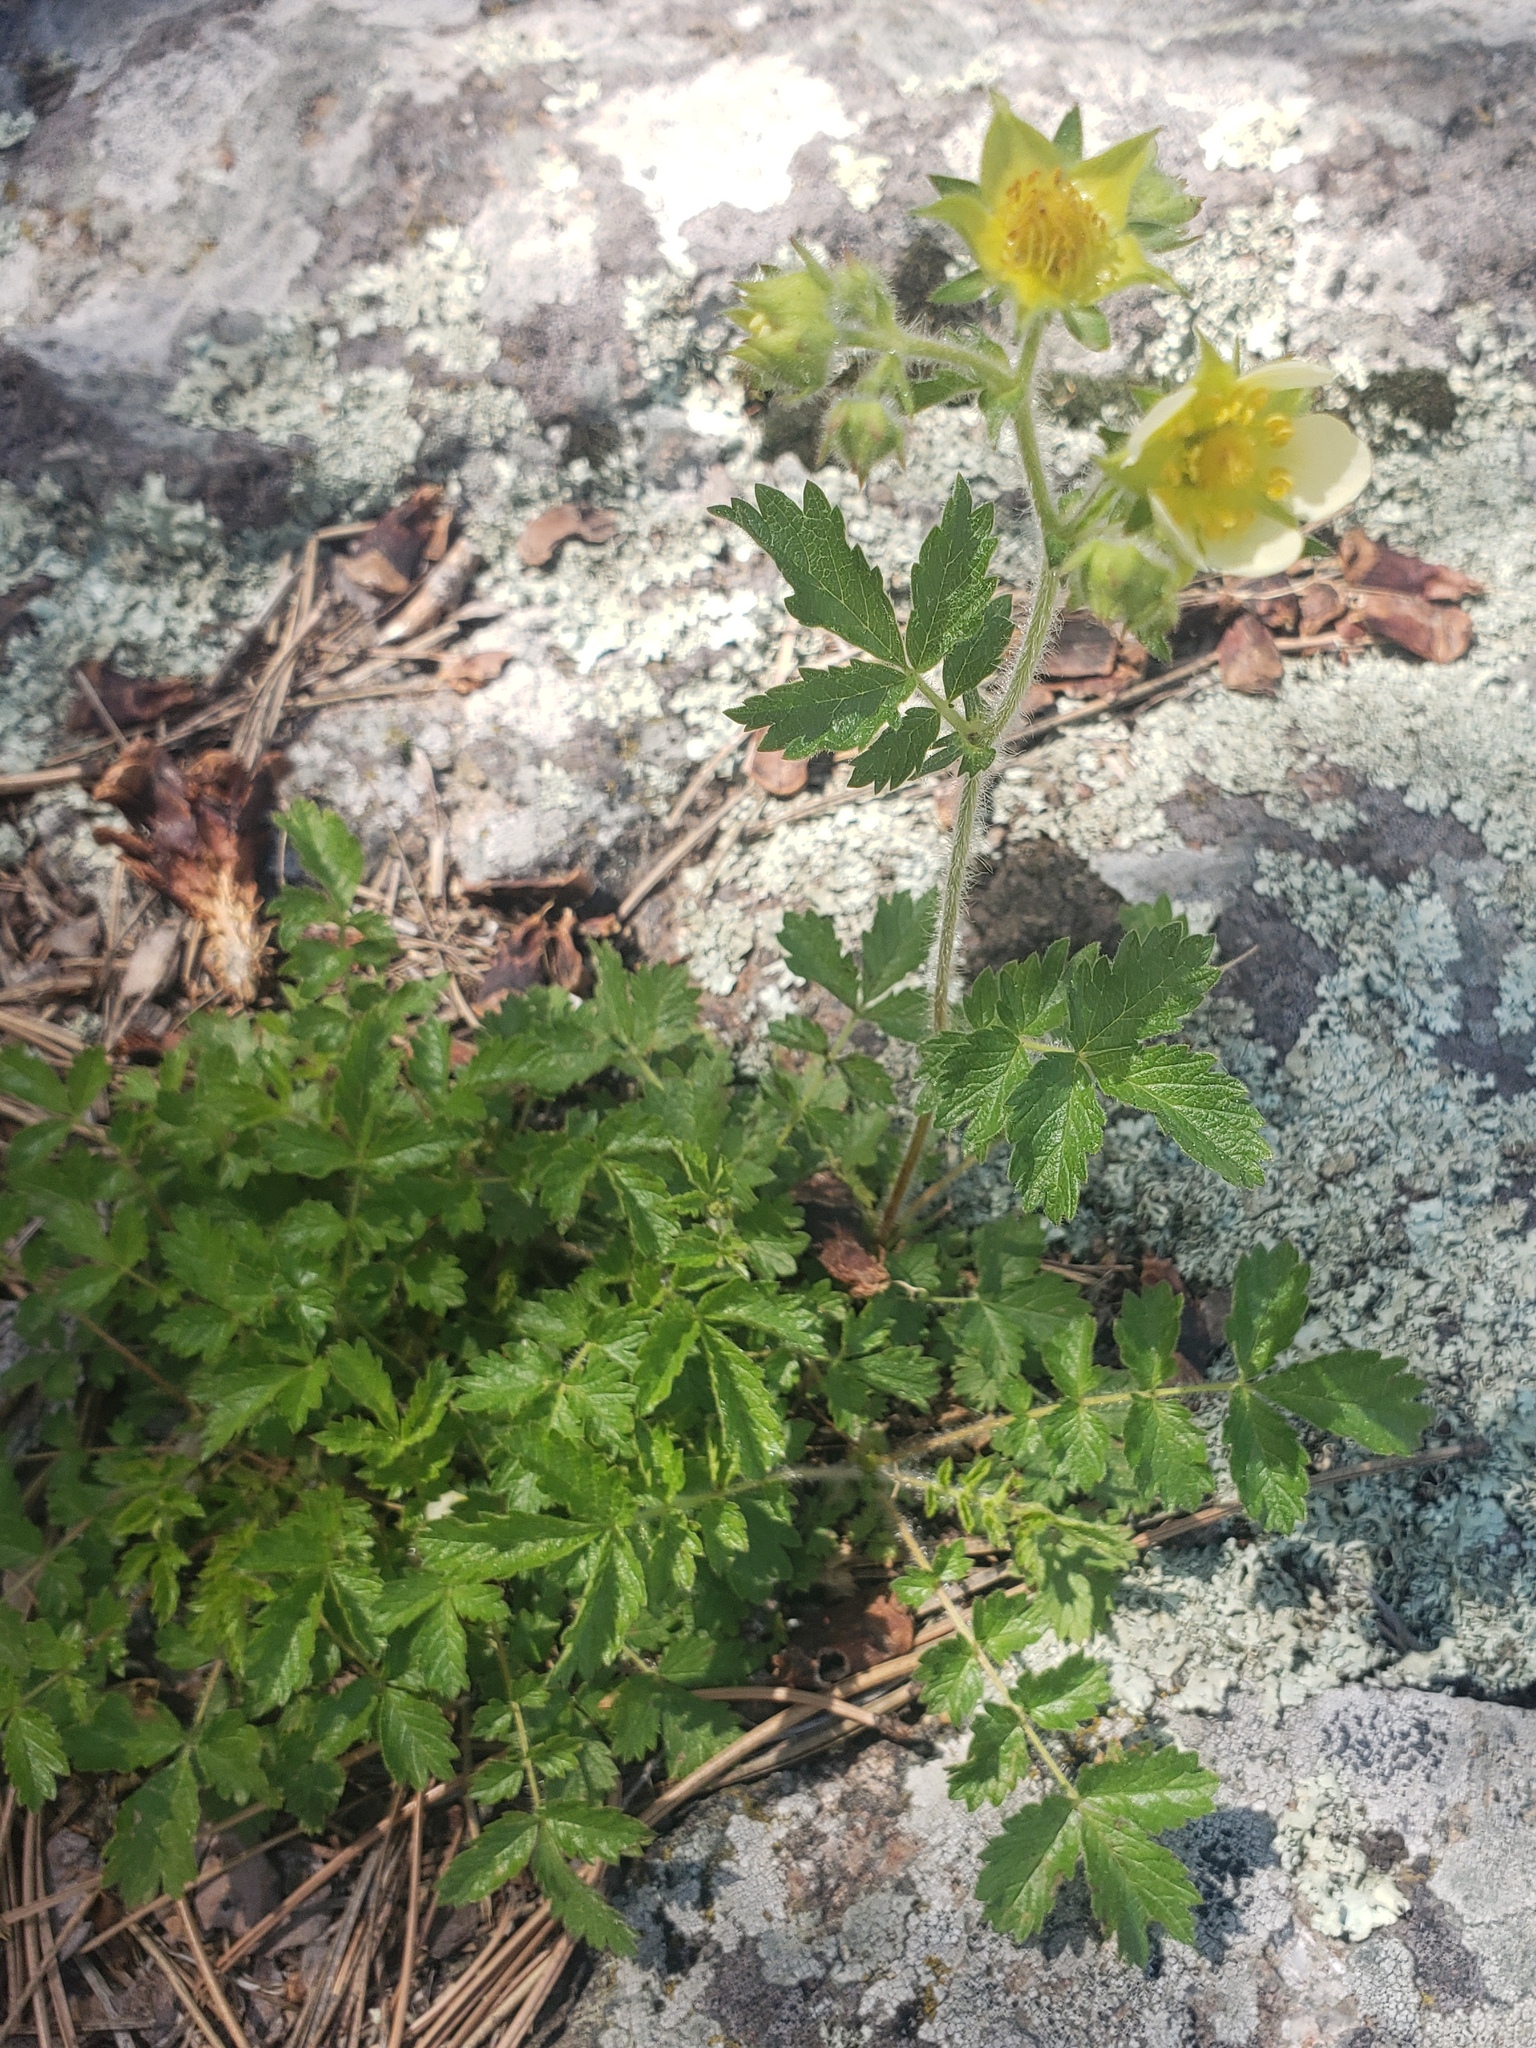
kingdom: Plantae
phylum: Tracheophyta
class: Magnoliopsida
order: Rosales
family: Rosaceae
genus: Drymocallis
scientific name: Drymocallis arguta
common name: Tall cinquefoil
